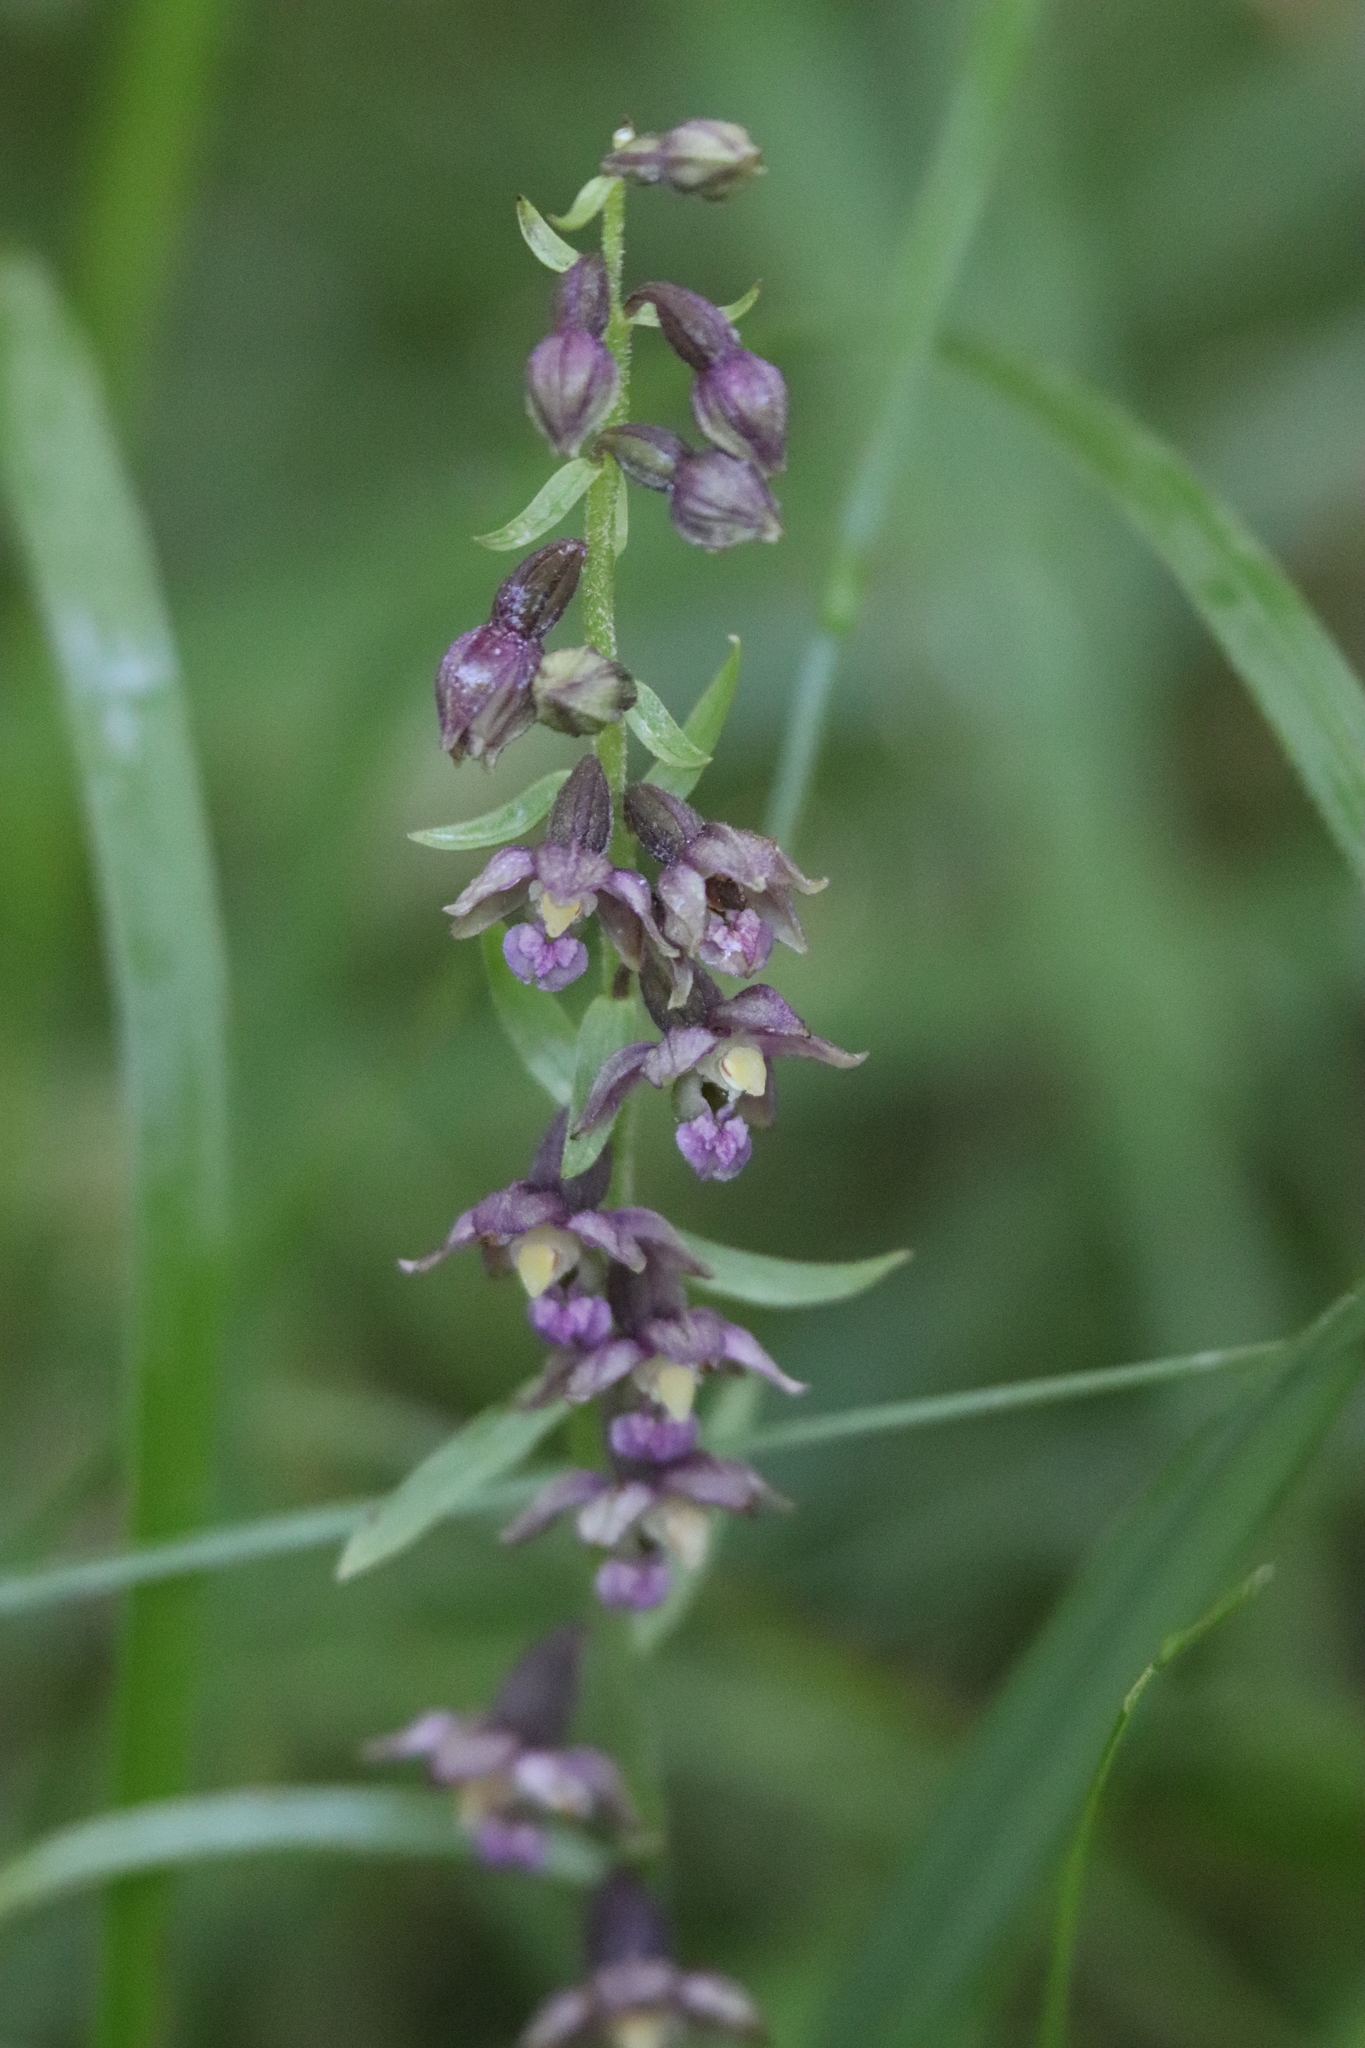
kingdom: Plantae
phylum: Tracheophyta
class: Liliopsida
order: Asparagales
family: Orchidaceae
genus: Epipactis
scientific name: Epipactis atrorubens
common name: Dark-red helleborine
